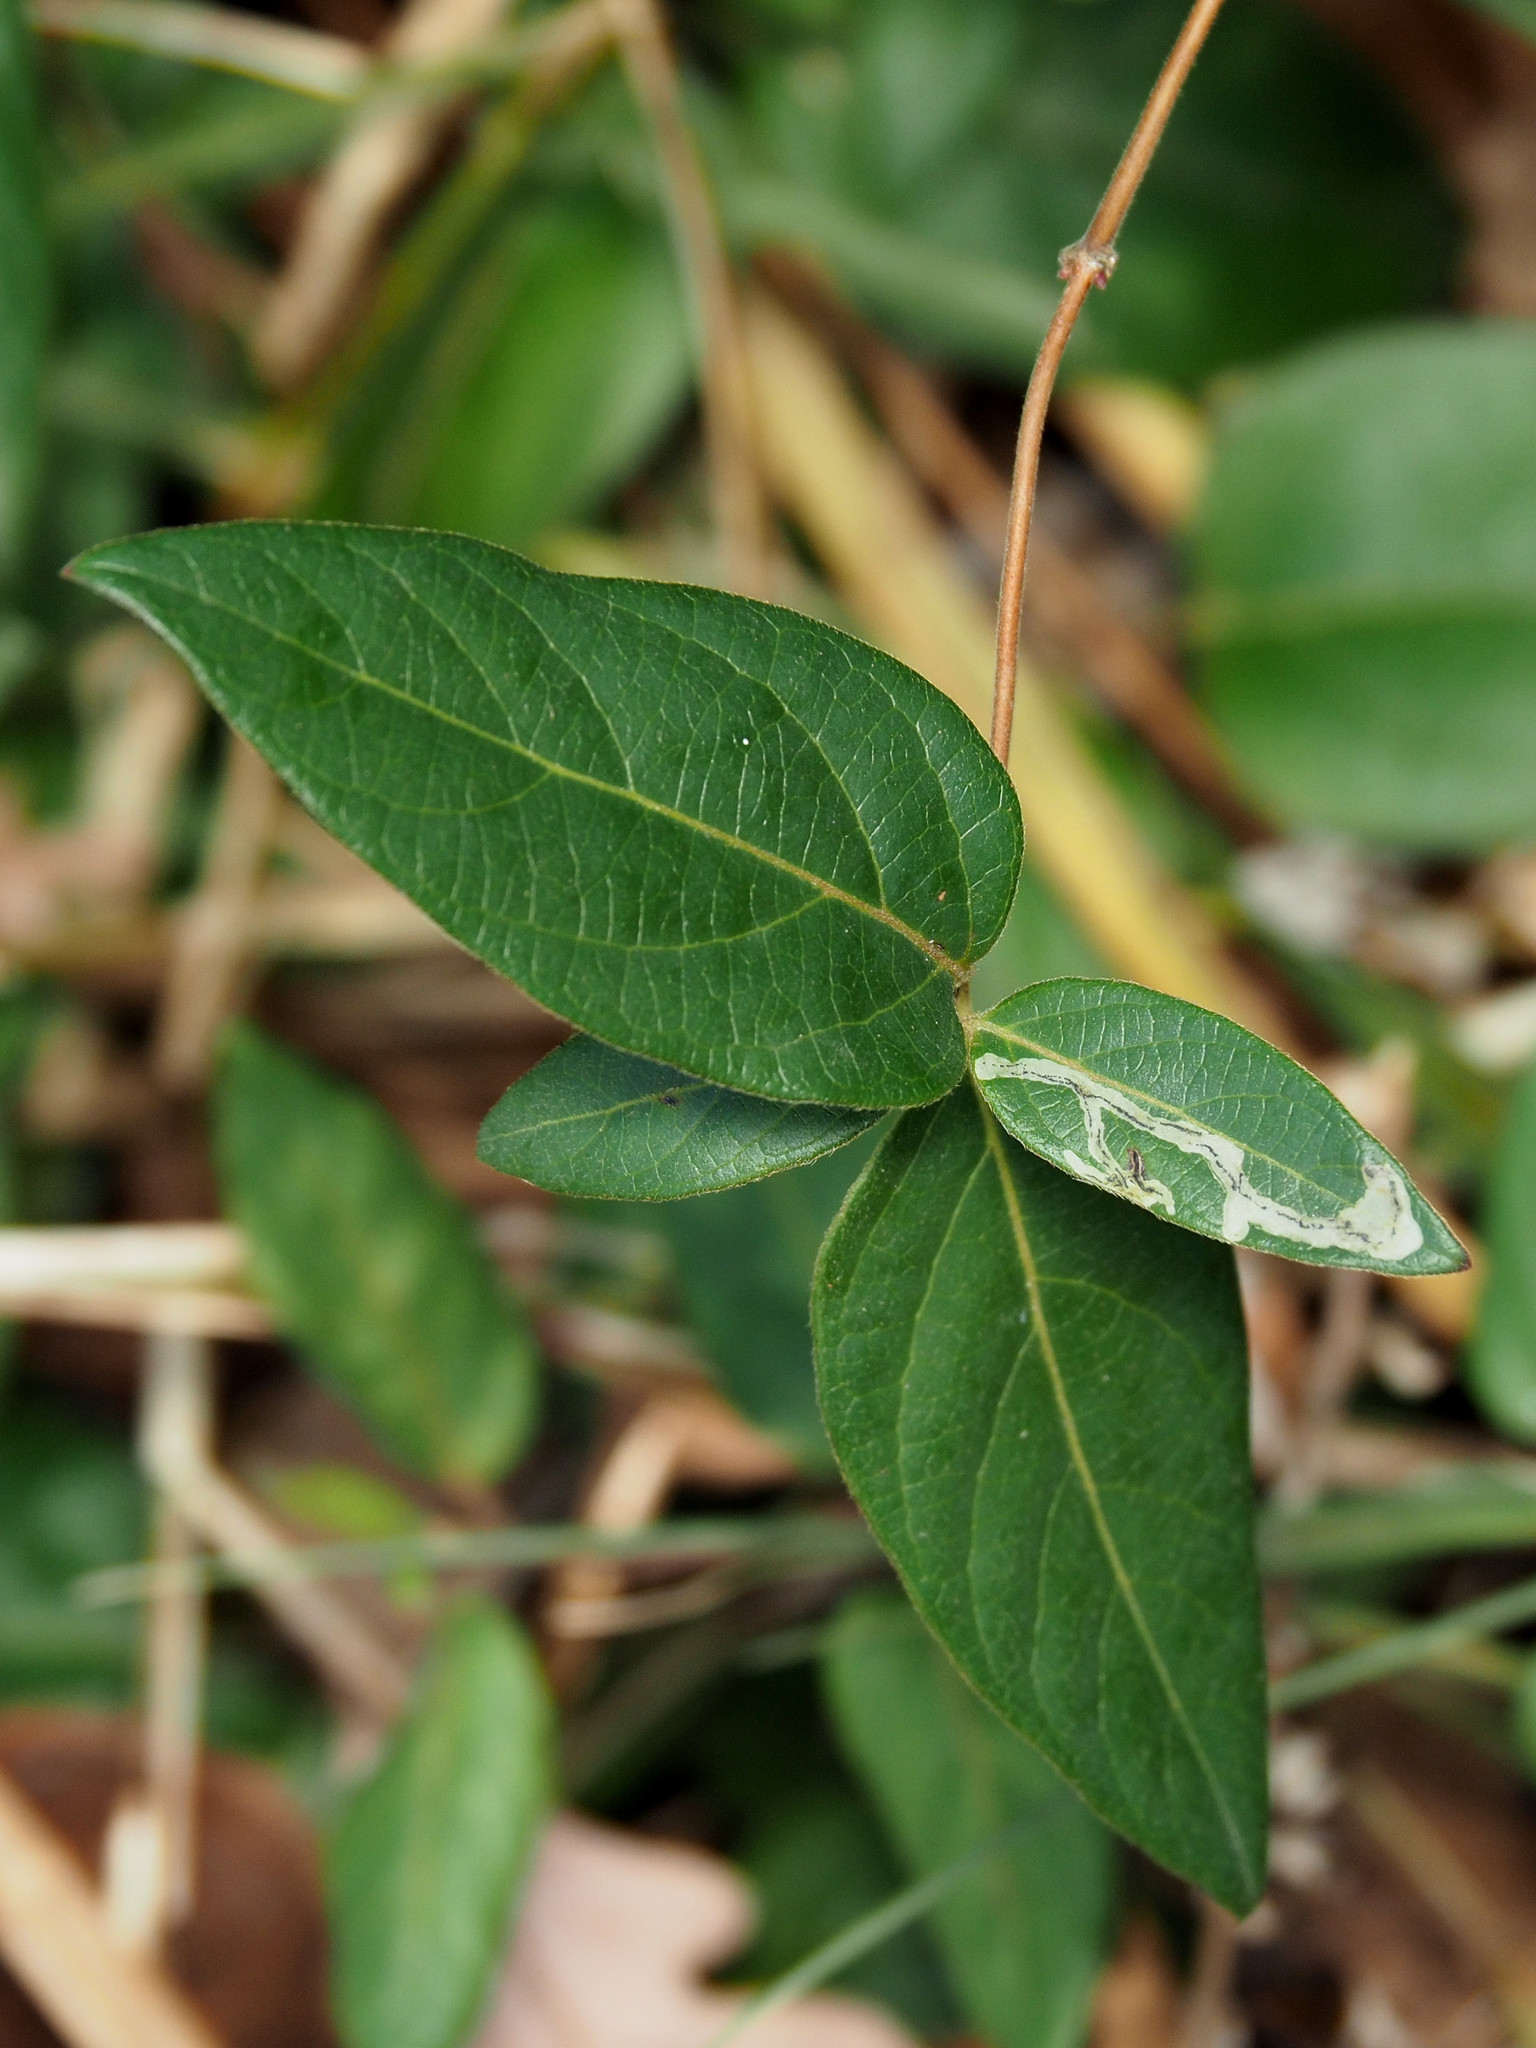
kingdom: Animalia
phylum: Arthropoda
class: Insecta
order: Diptera
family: Agromyzidae
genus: Phytomyza
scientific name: Phytomyza sempervirentis
